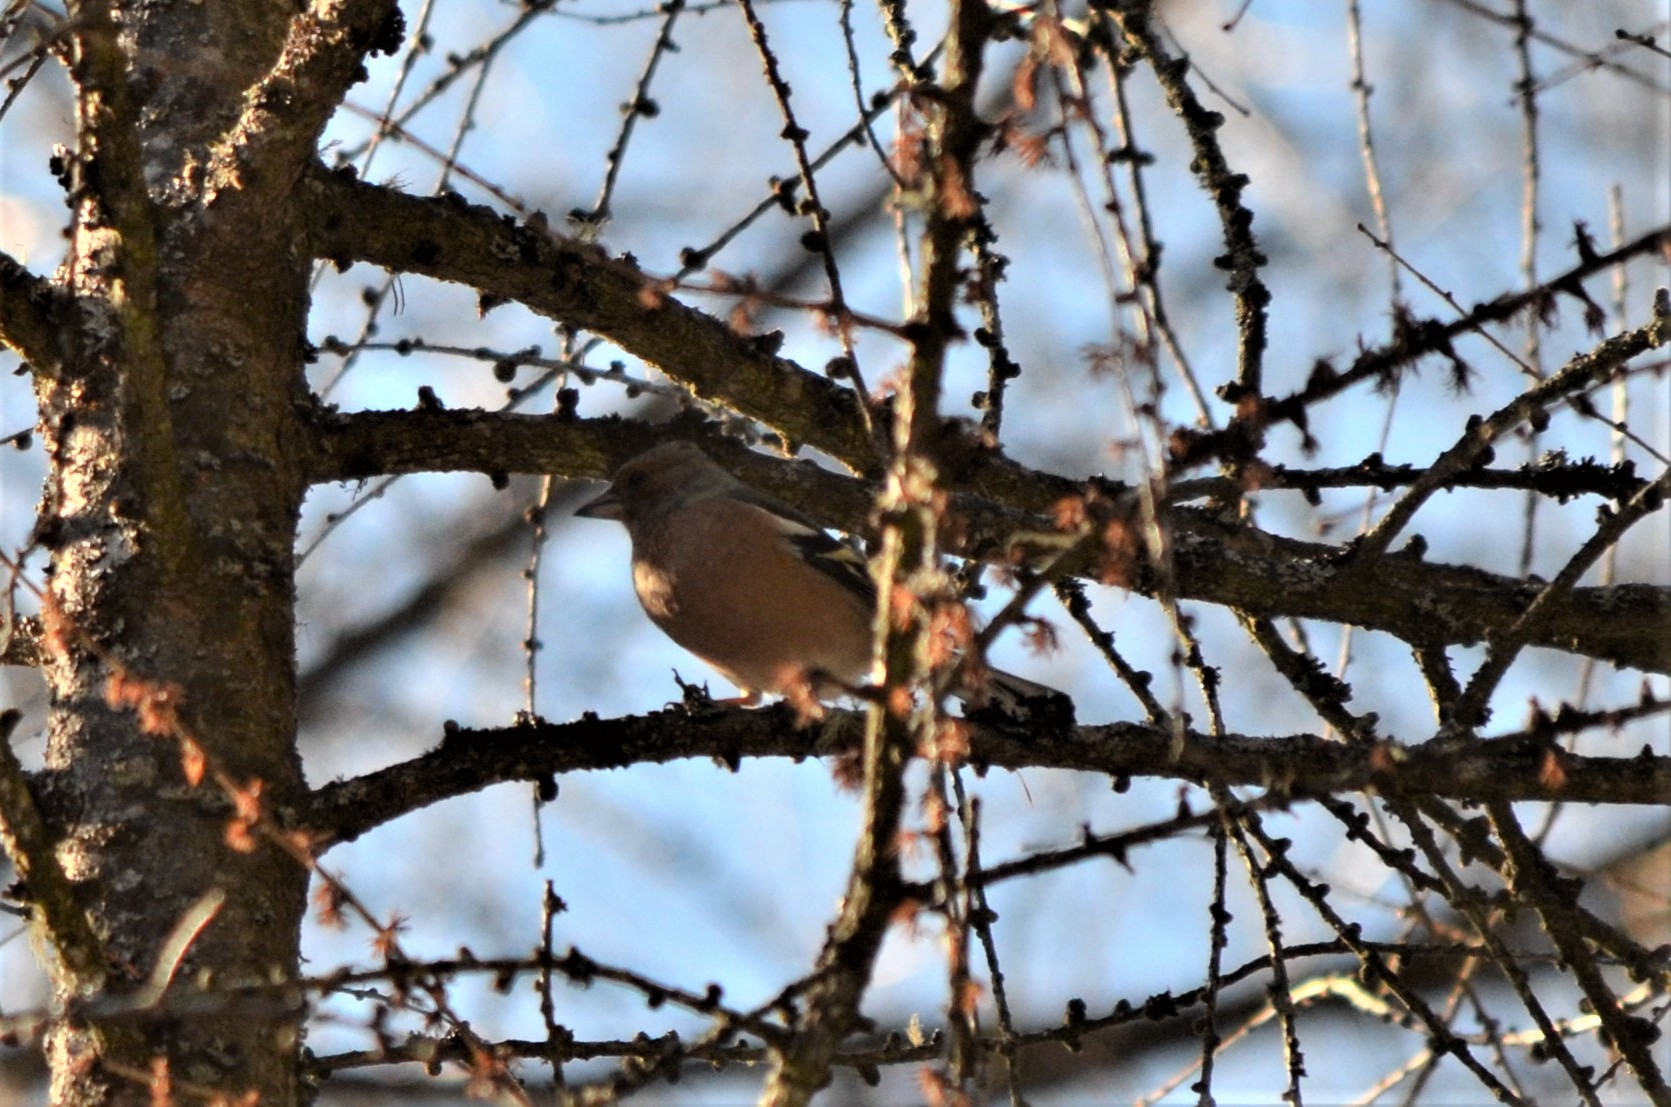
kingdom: Animalia
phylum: Chordata
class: Aves
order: Passeriformes
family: Fringillidae
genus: Fringilla
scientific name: Fringilla coelebs
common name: Common chaffinch
